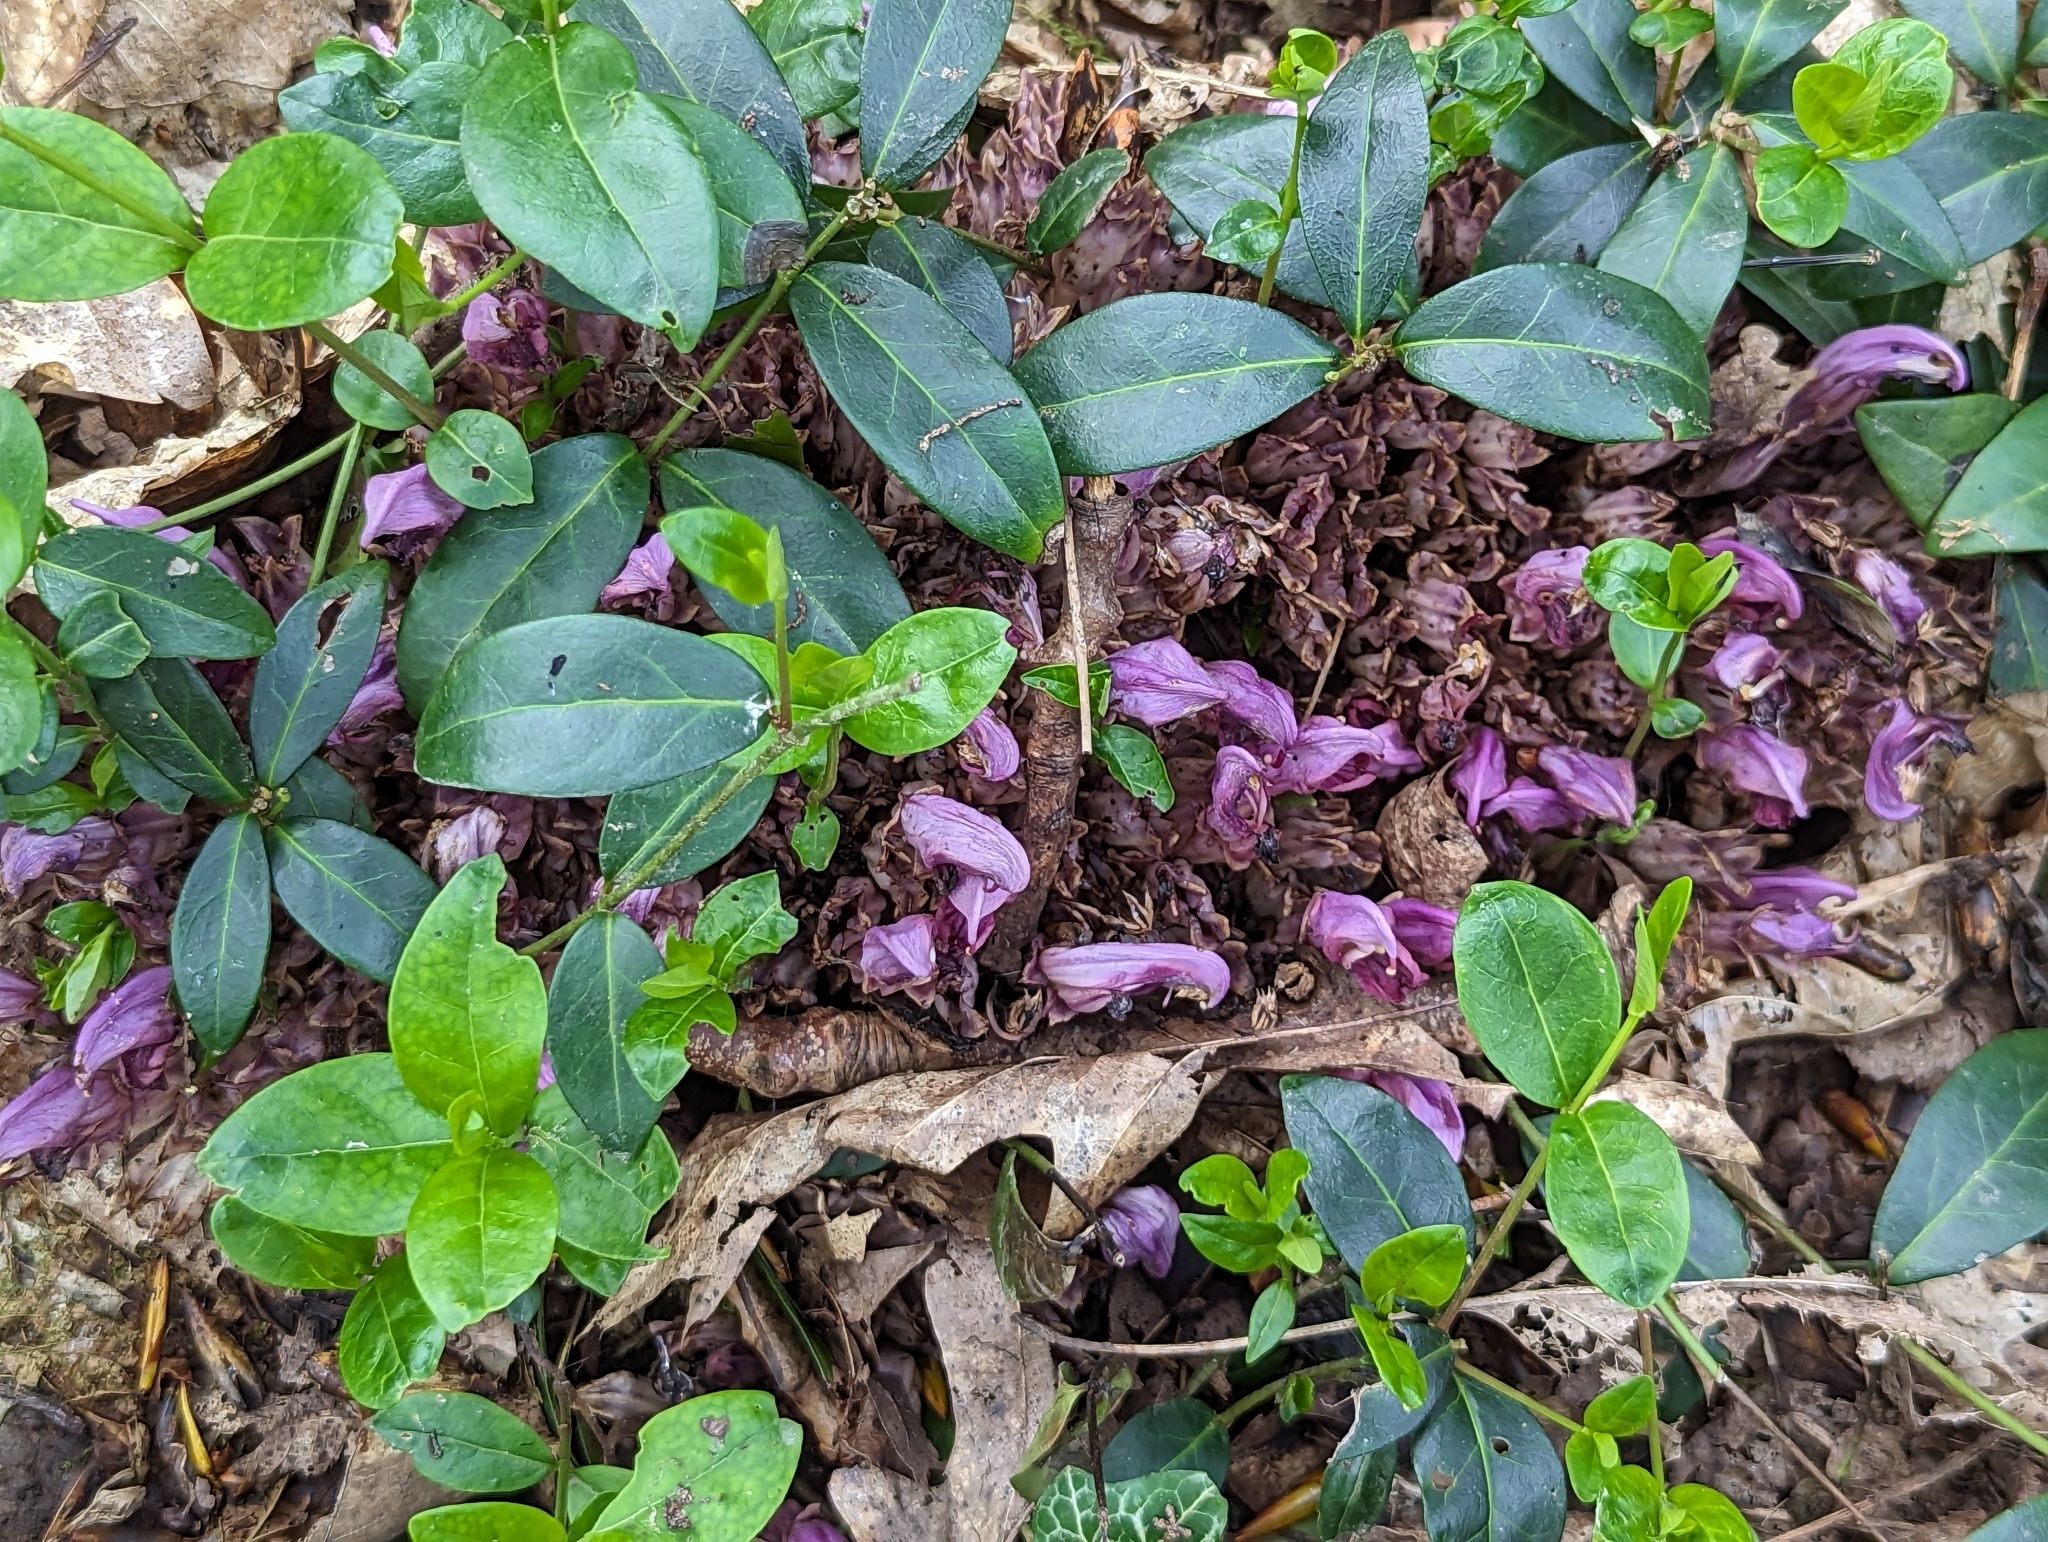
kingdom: Plantae
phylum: Tracheophyta
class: Magnoliopsida
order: Lamiales
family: Orobanchaceae
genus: Lathraea
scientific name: Lathraea clandestina
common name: Purple toothwort
